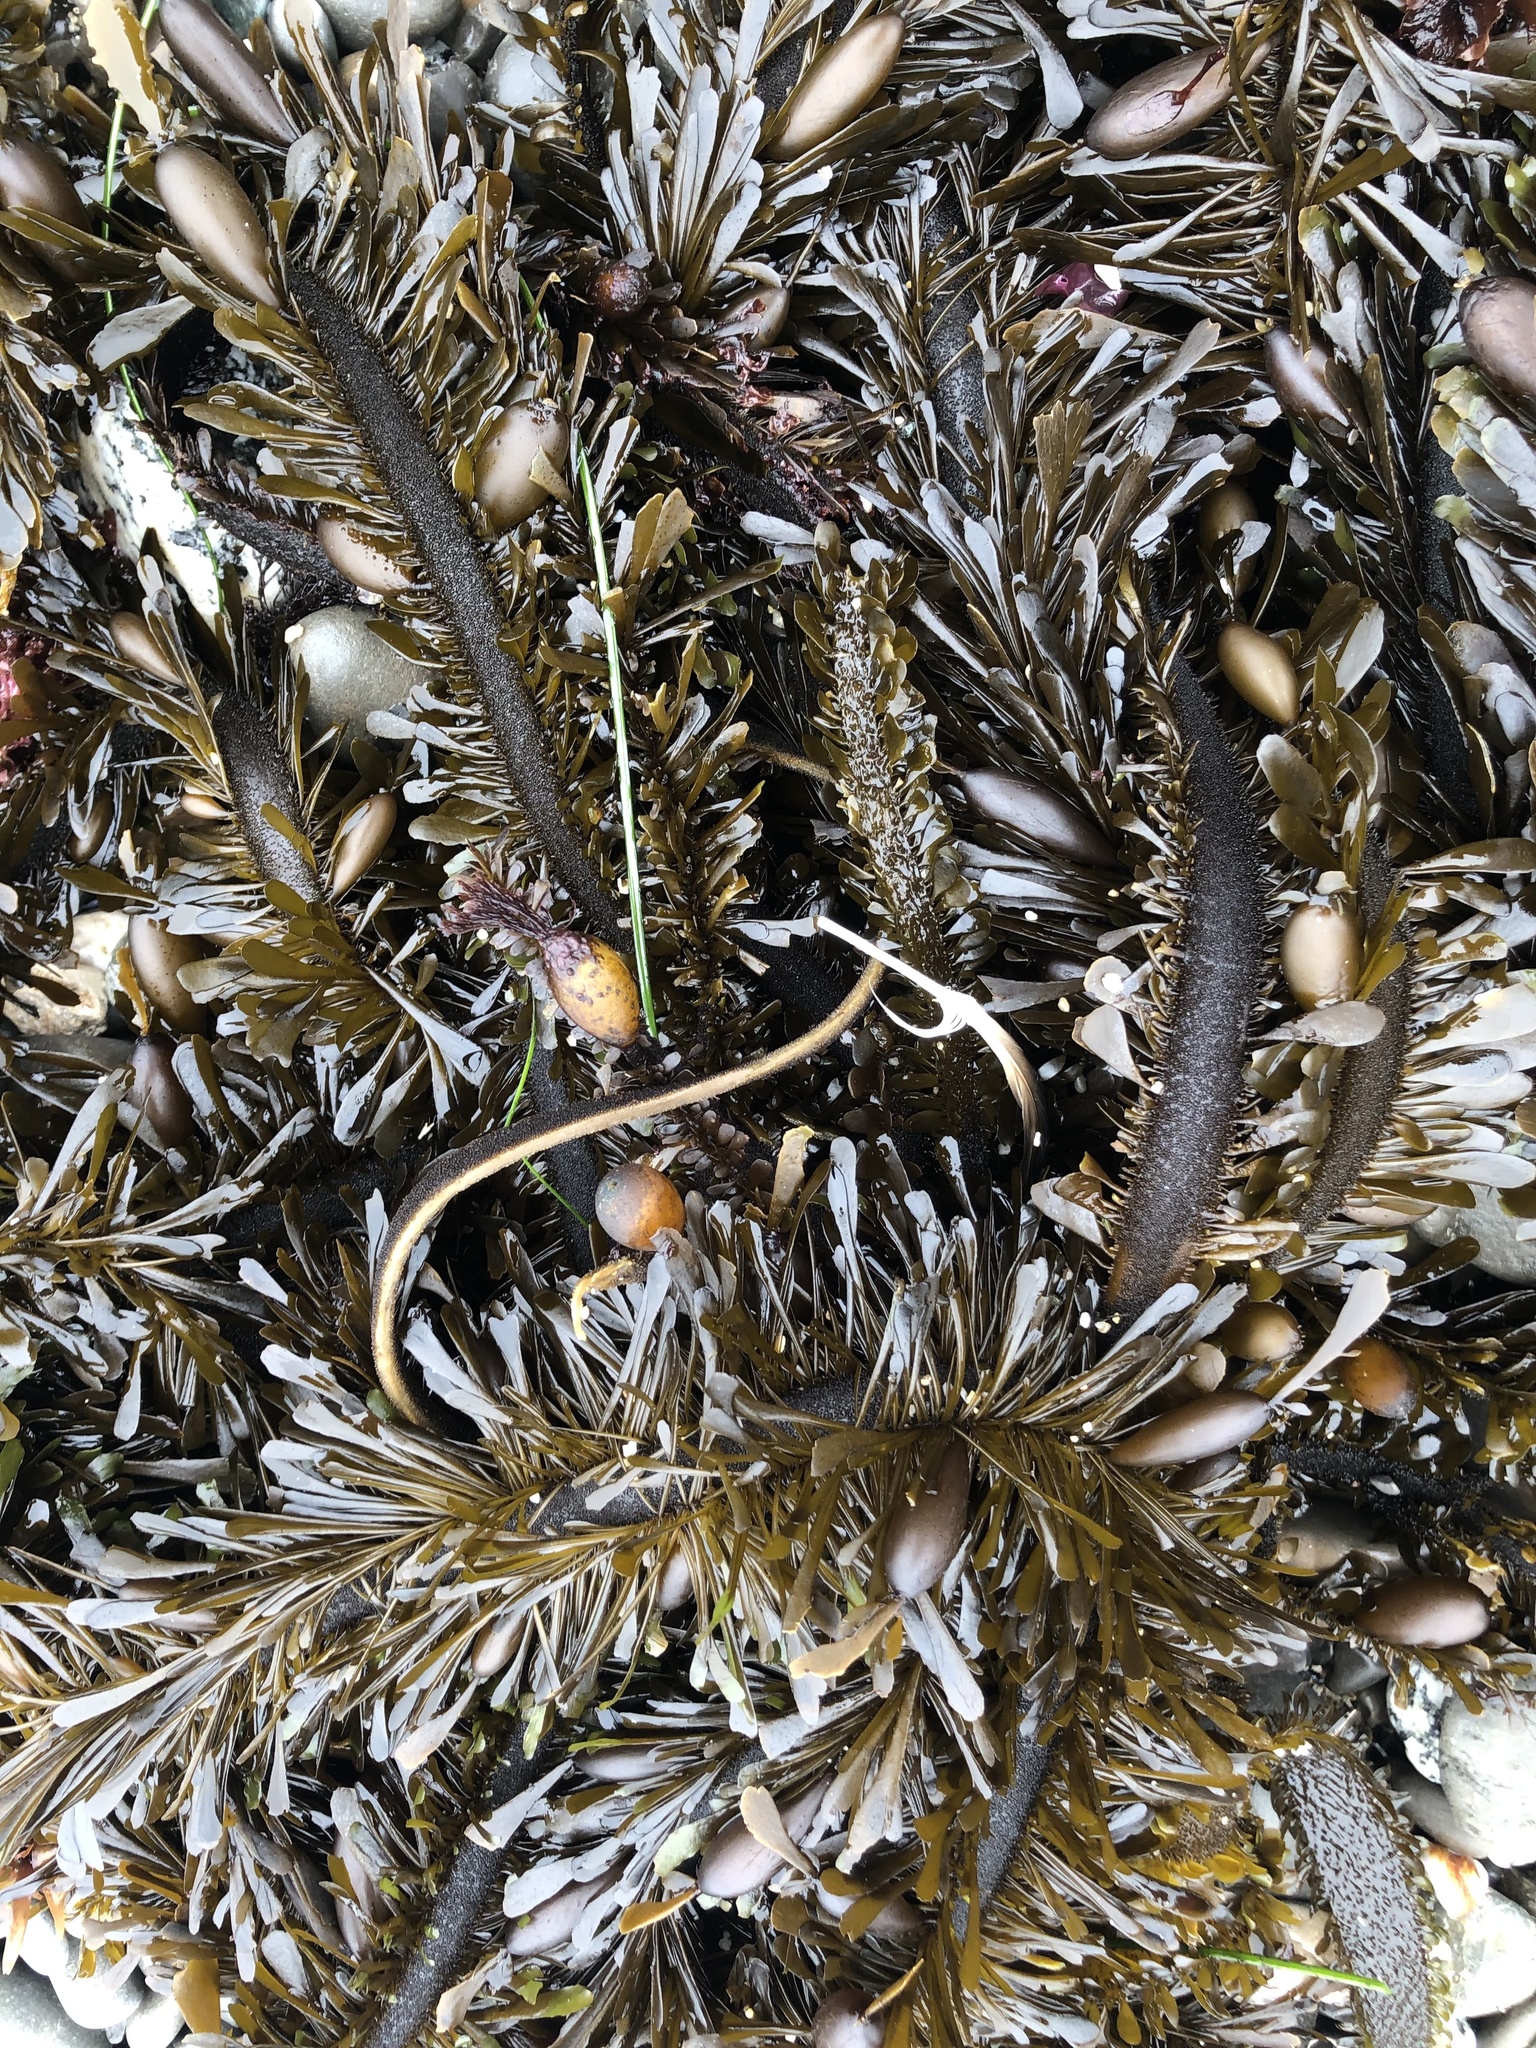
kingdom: Chromista
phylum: Ochrophyta
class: Phaeophyceae
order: Laminariales
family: Lessoniaceae
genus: Egregia
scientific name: Egregia menziesii
